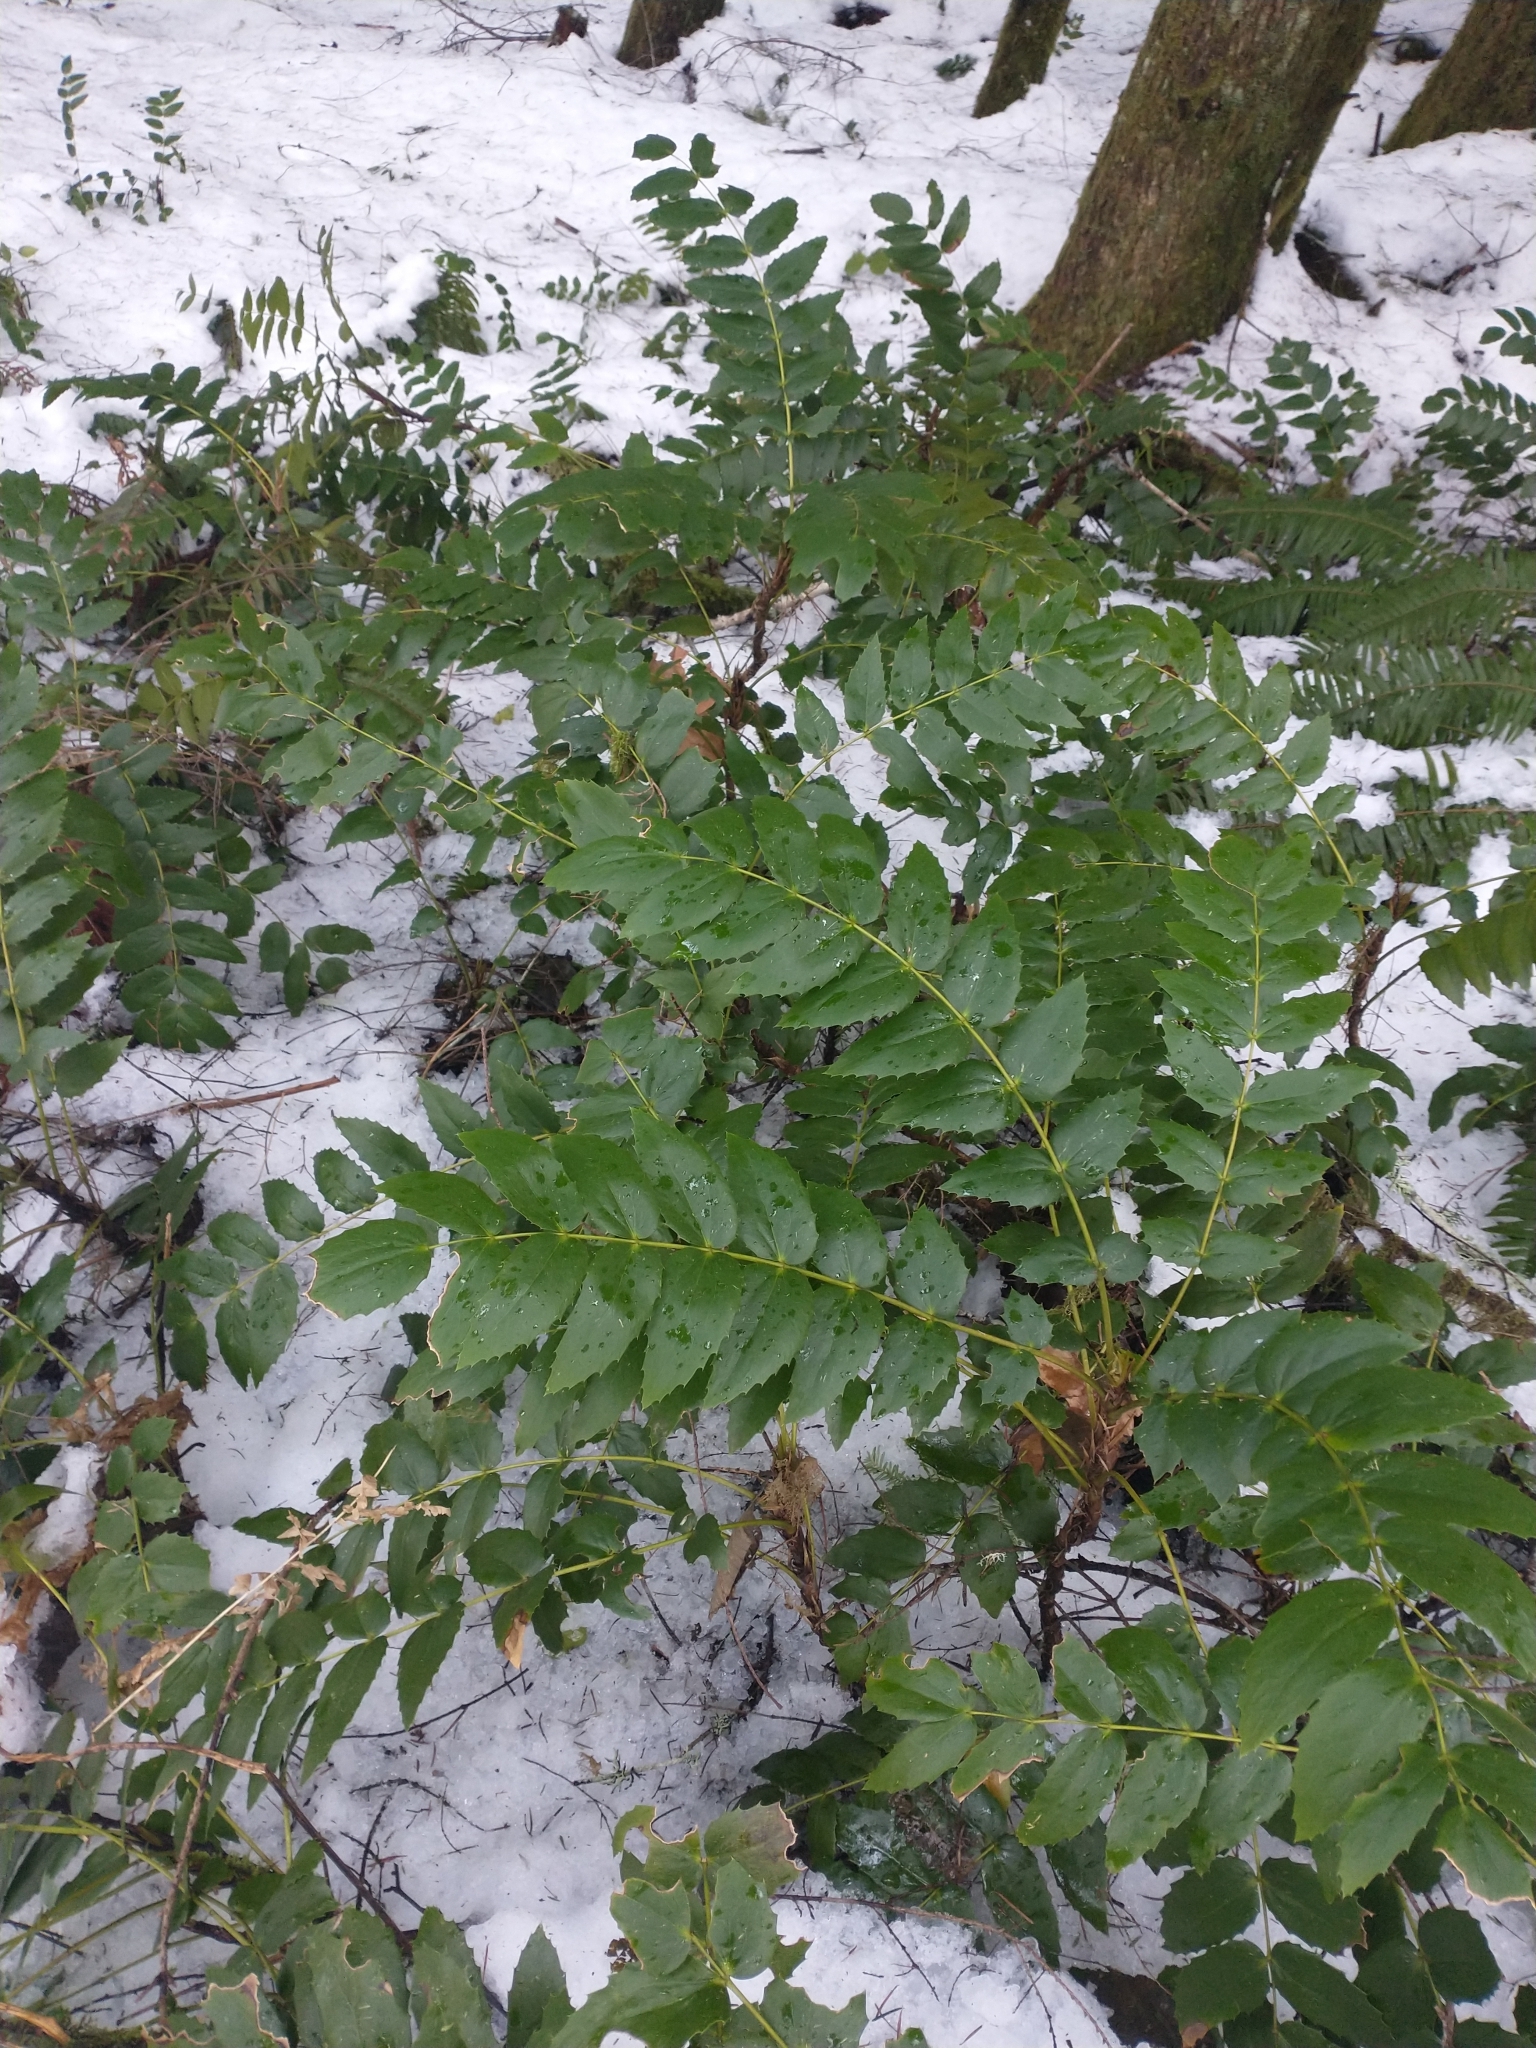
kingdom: Plantae
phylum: Tracheophyta
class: Magnoliopsida
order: Ranunculales
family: Berberidaceae
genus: Mahonia
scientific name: Mahonia nervosa
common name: Cascade oregon-grape
